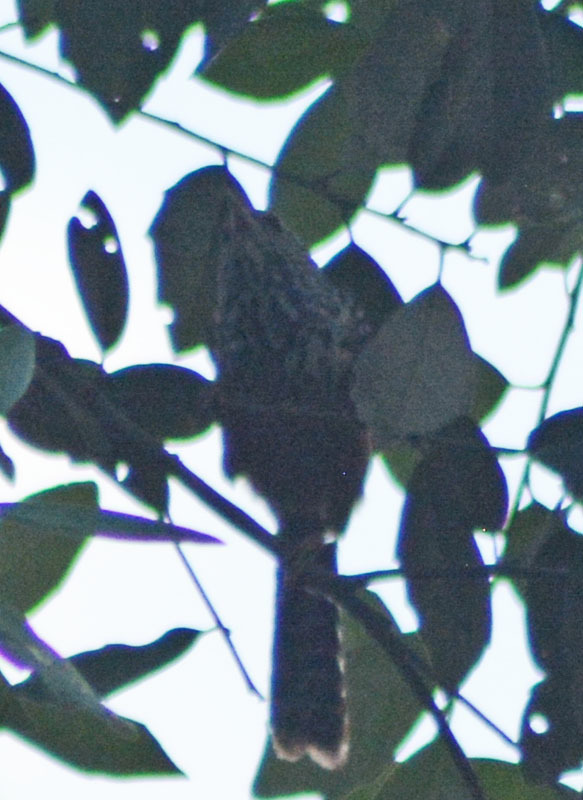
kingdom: Animalia
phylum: Chordata
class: Aves
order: Passeriformes
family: Troglodytidae
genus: Campylorhynchus
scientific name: Campylorhynchus zonatus
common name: Band-backed wren
